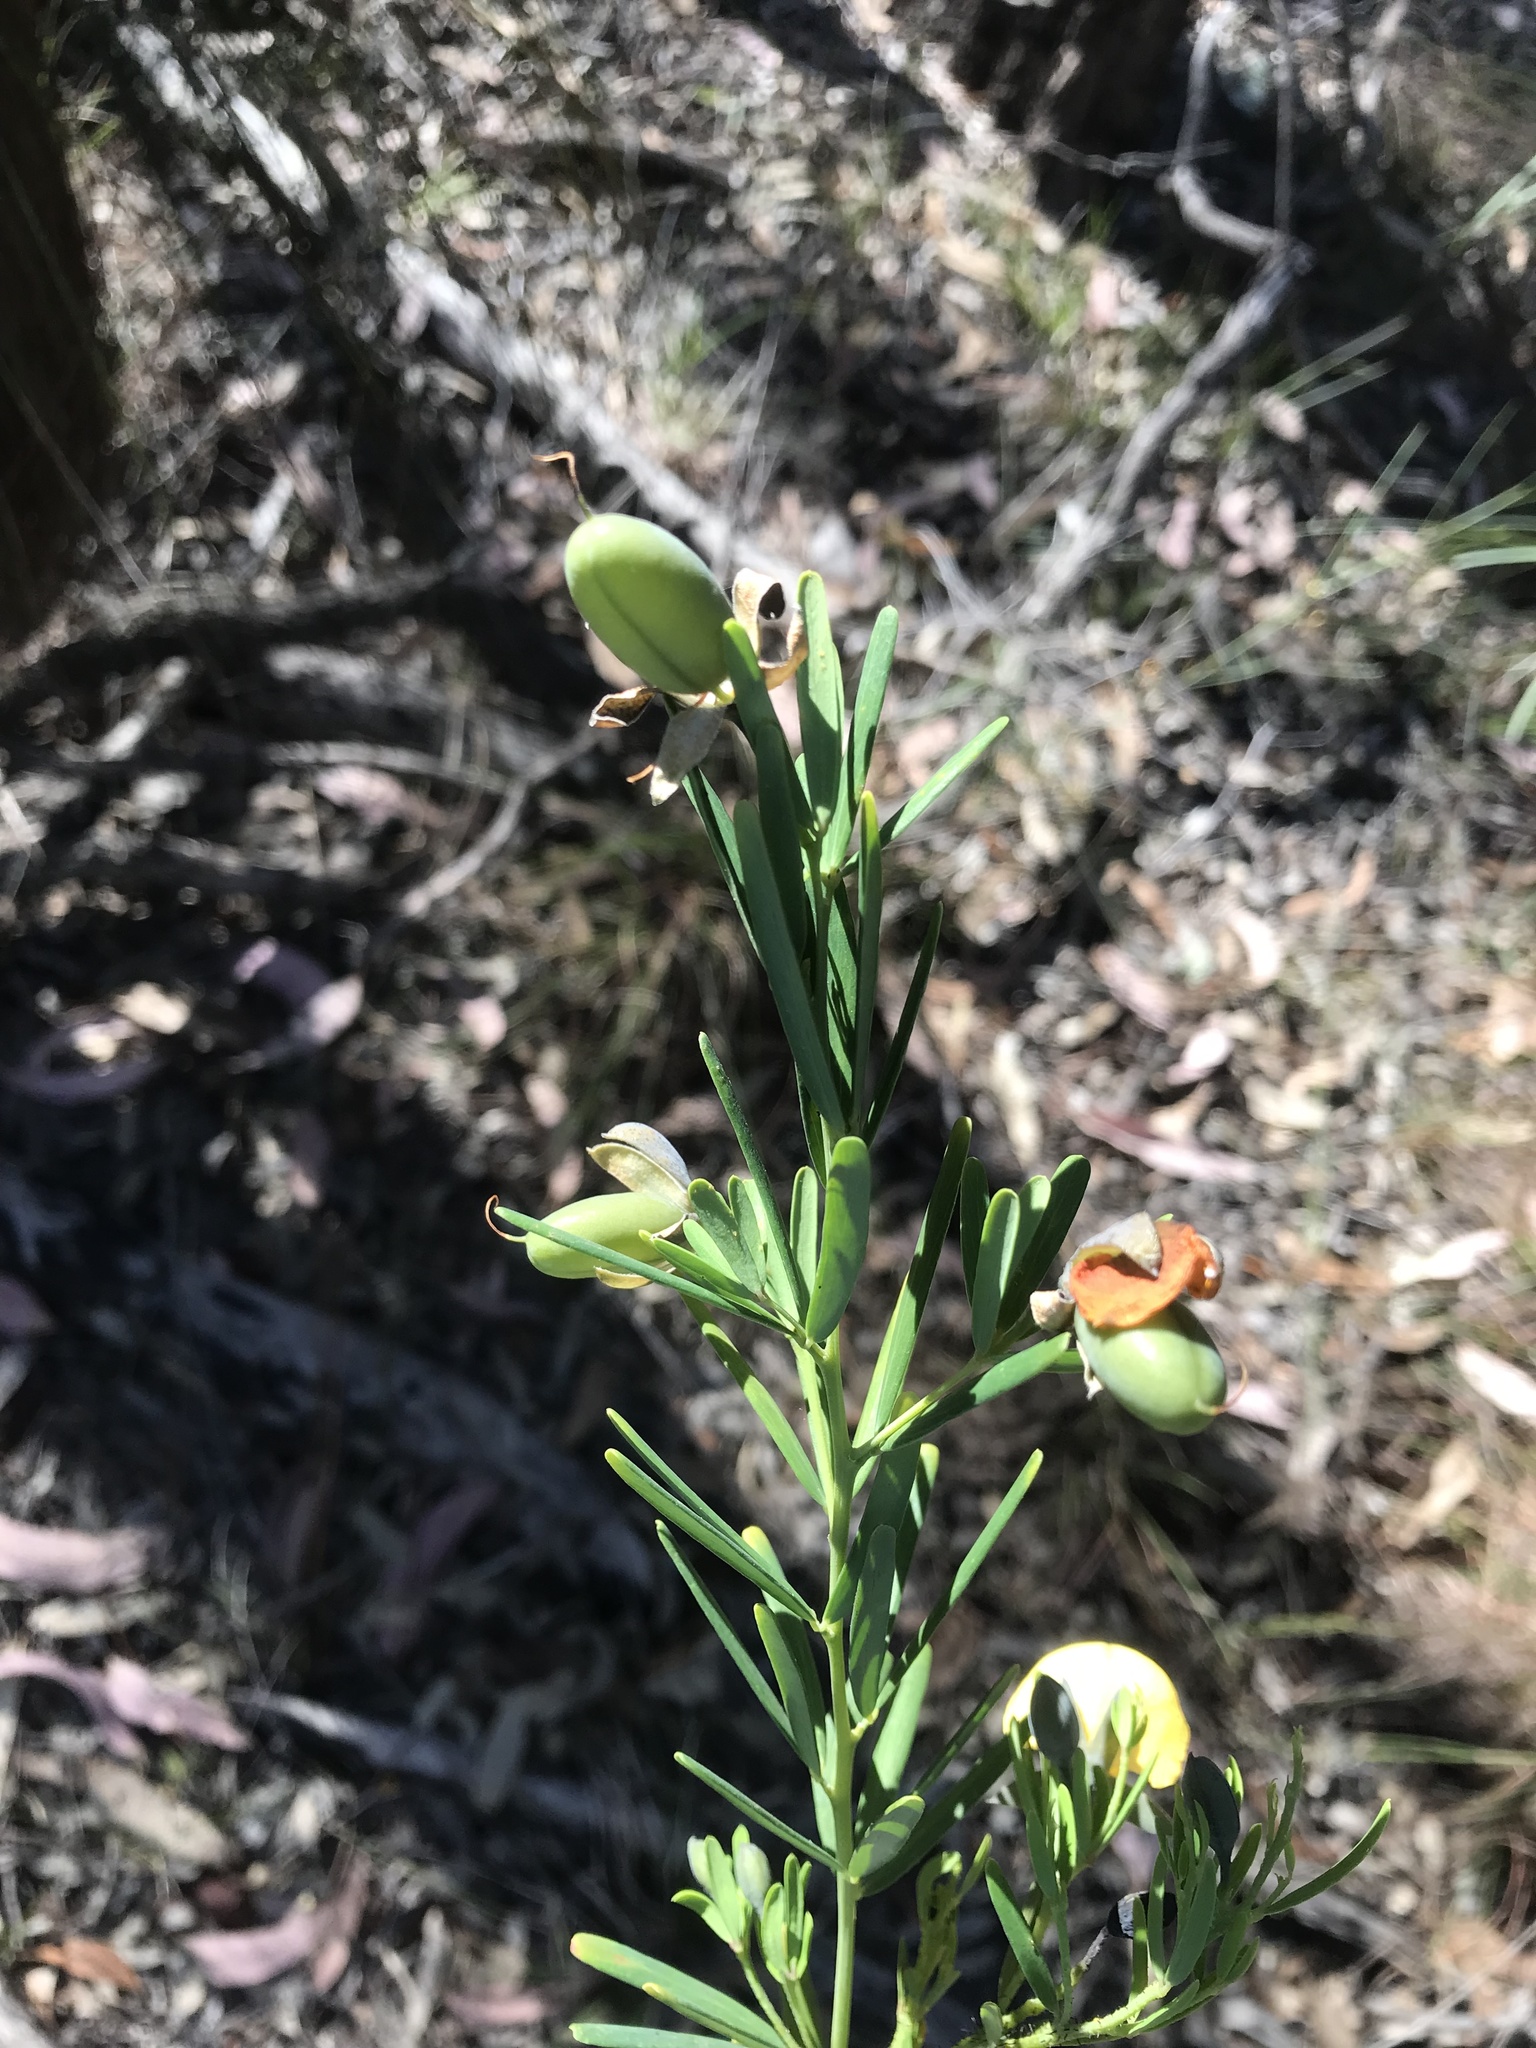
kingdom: Plantae
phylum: Tracheophyta
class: Magnoliopsida
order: Fabales
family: Fabaceae
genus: Gompholobium
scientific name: Gompholobium latifolium
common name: Broadleaf wedge-pea
